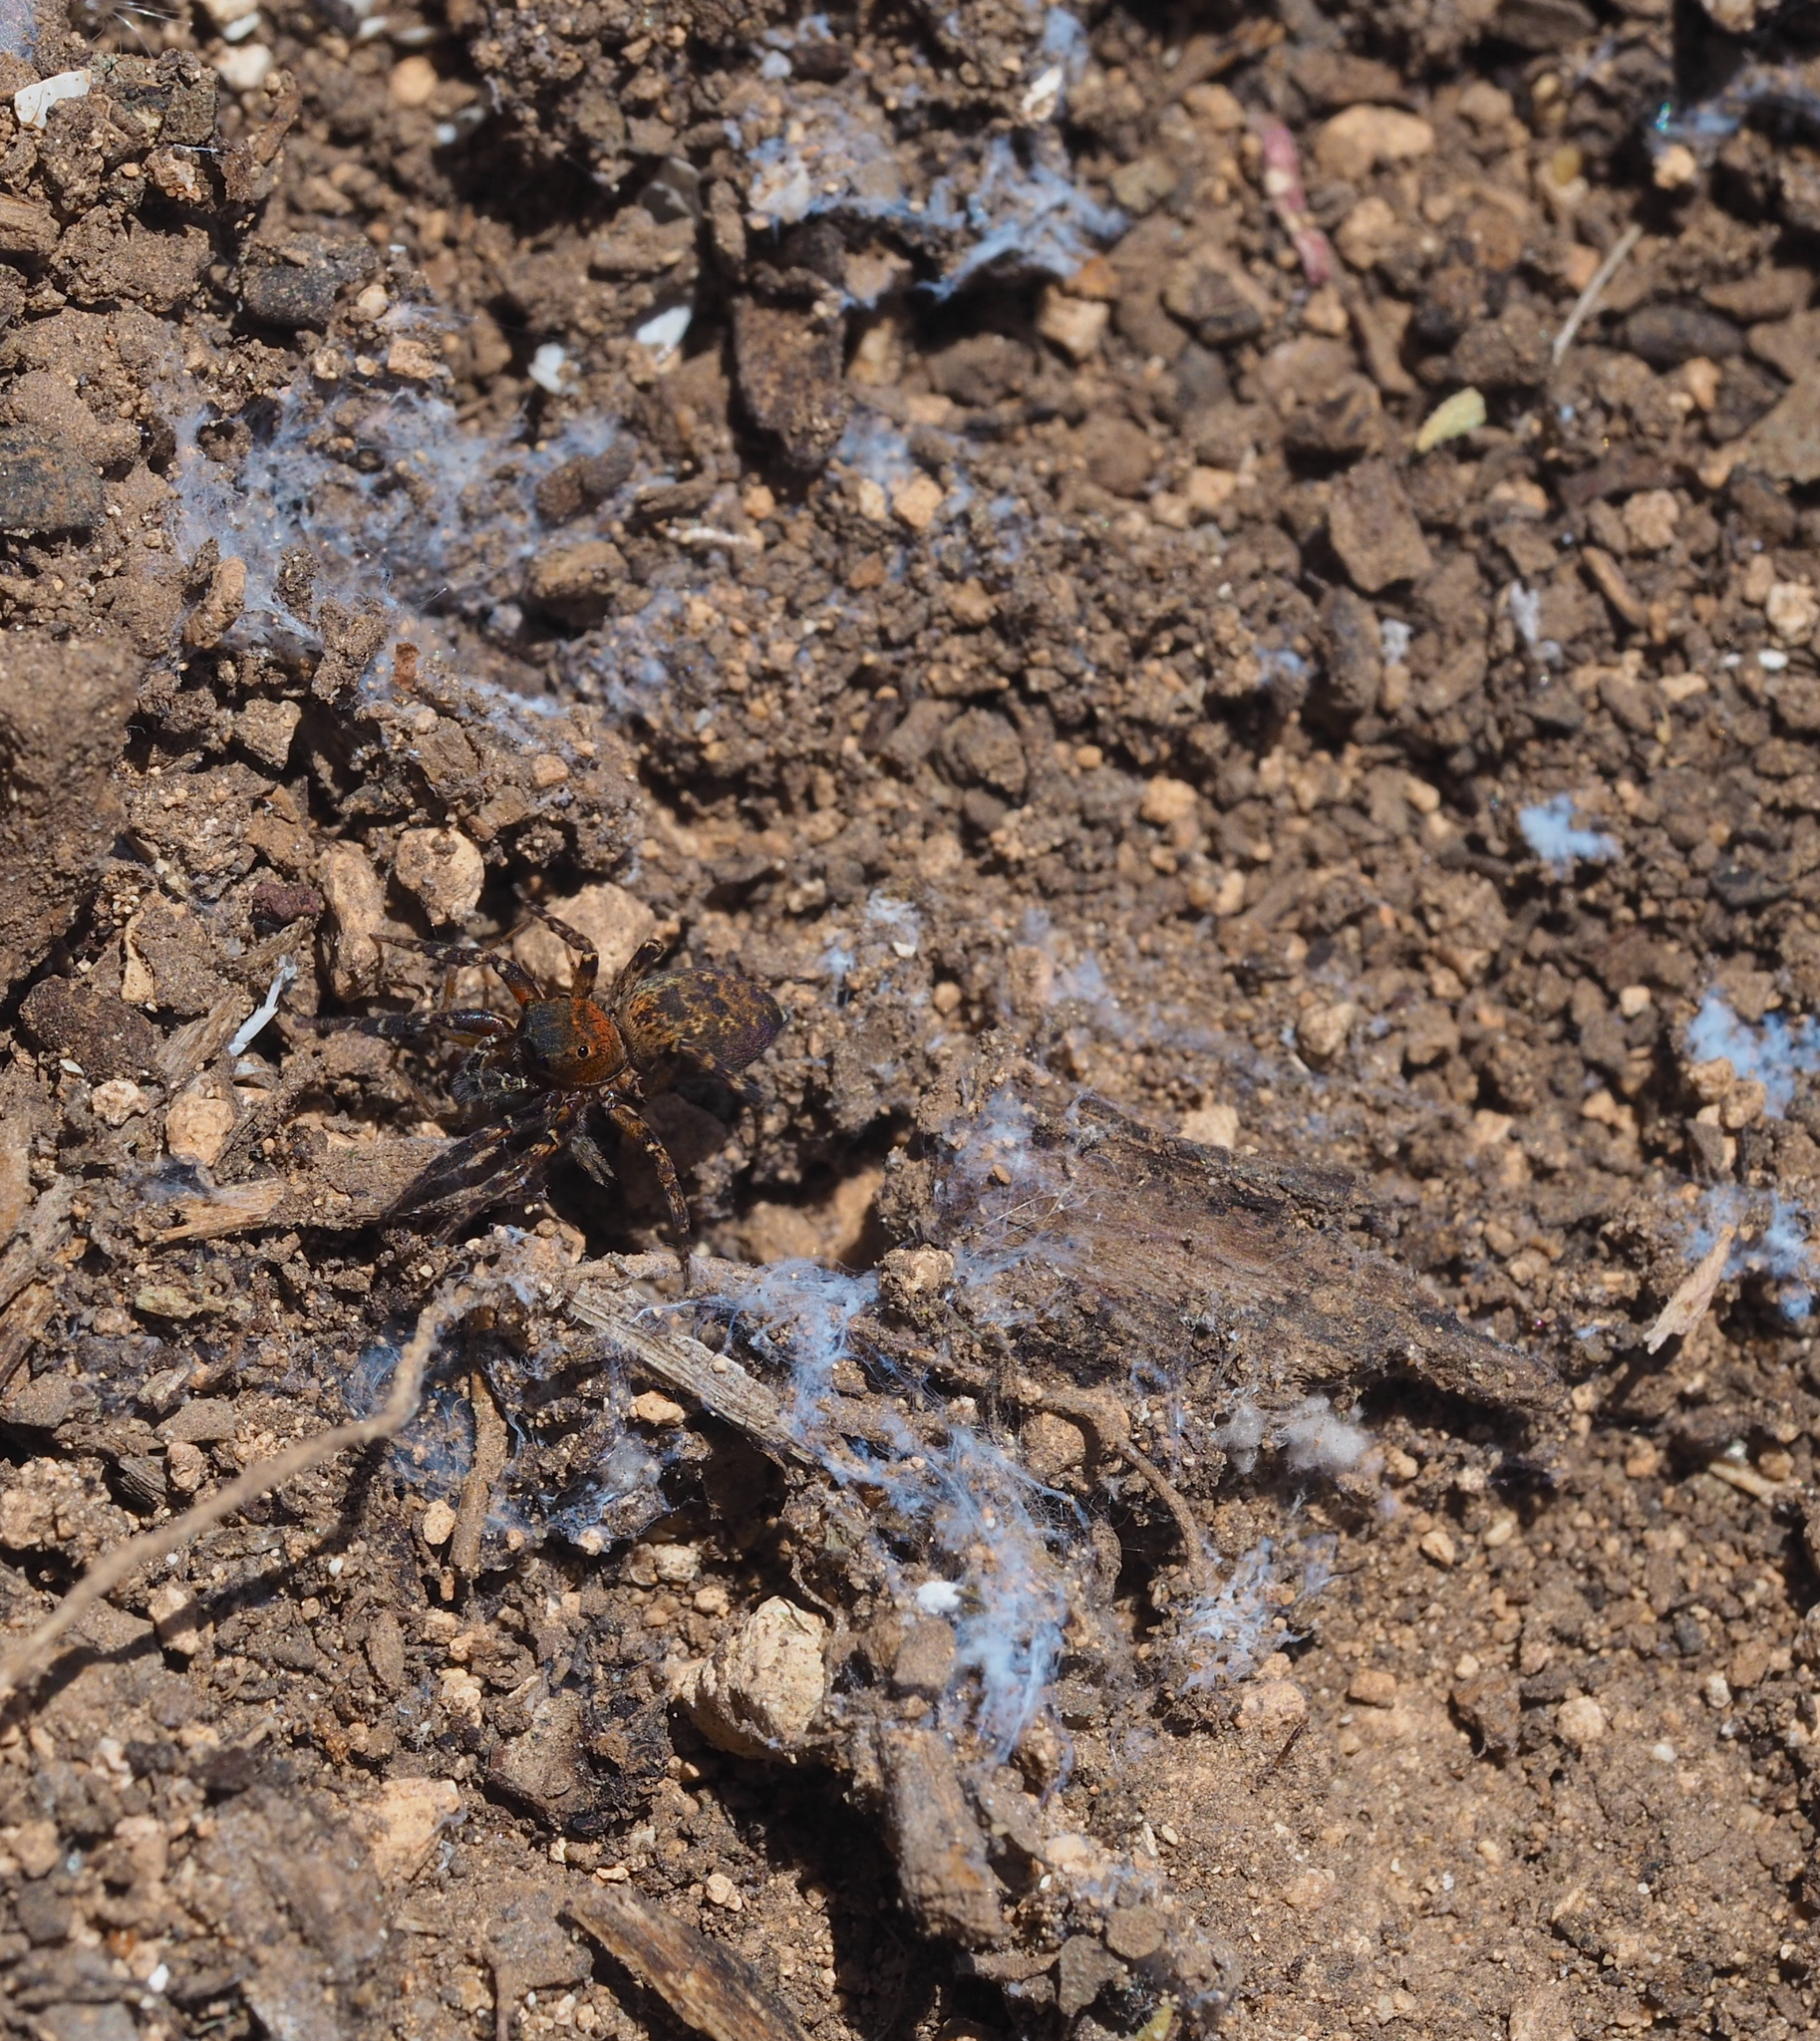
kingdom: Animalia
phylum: Arthropoda
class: Arachnida
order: Araneae
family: Salticidae
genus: Cyrba
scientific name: Cyrba algerina
